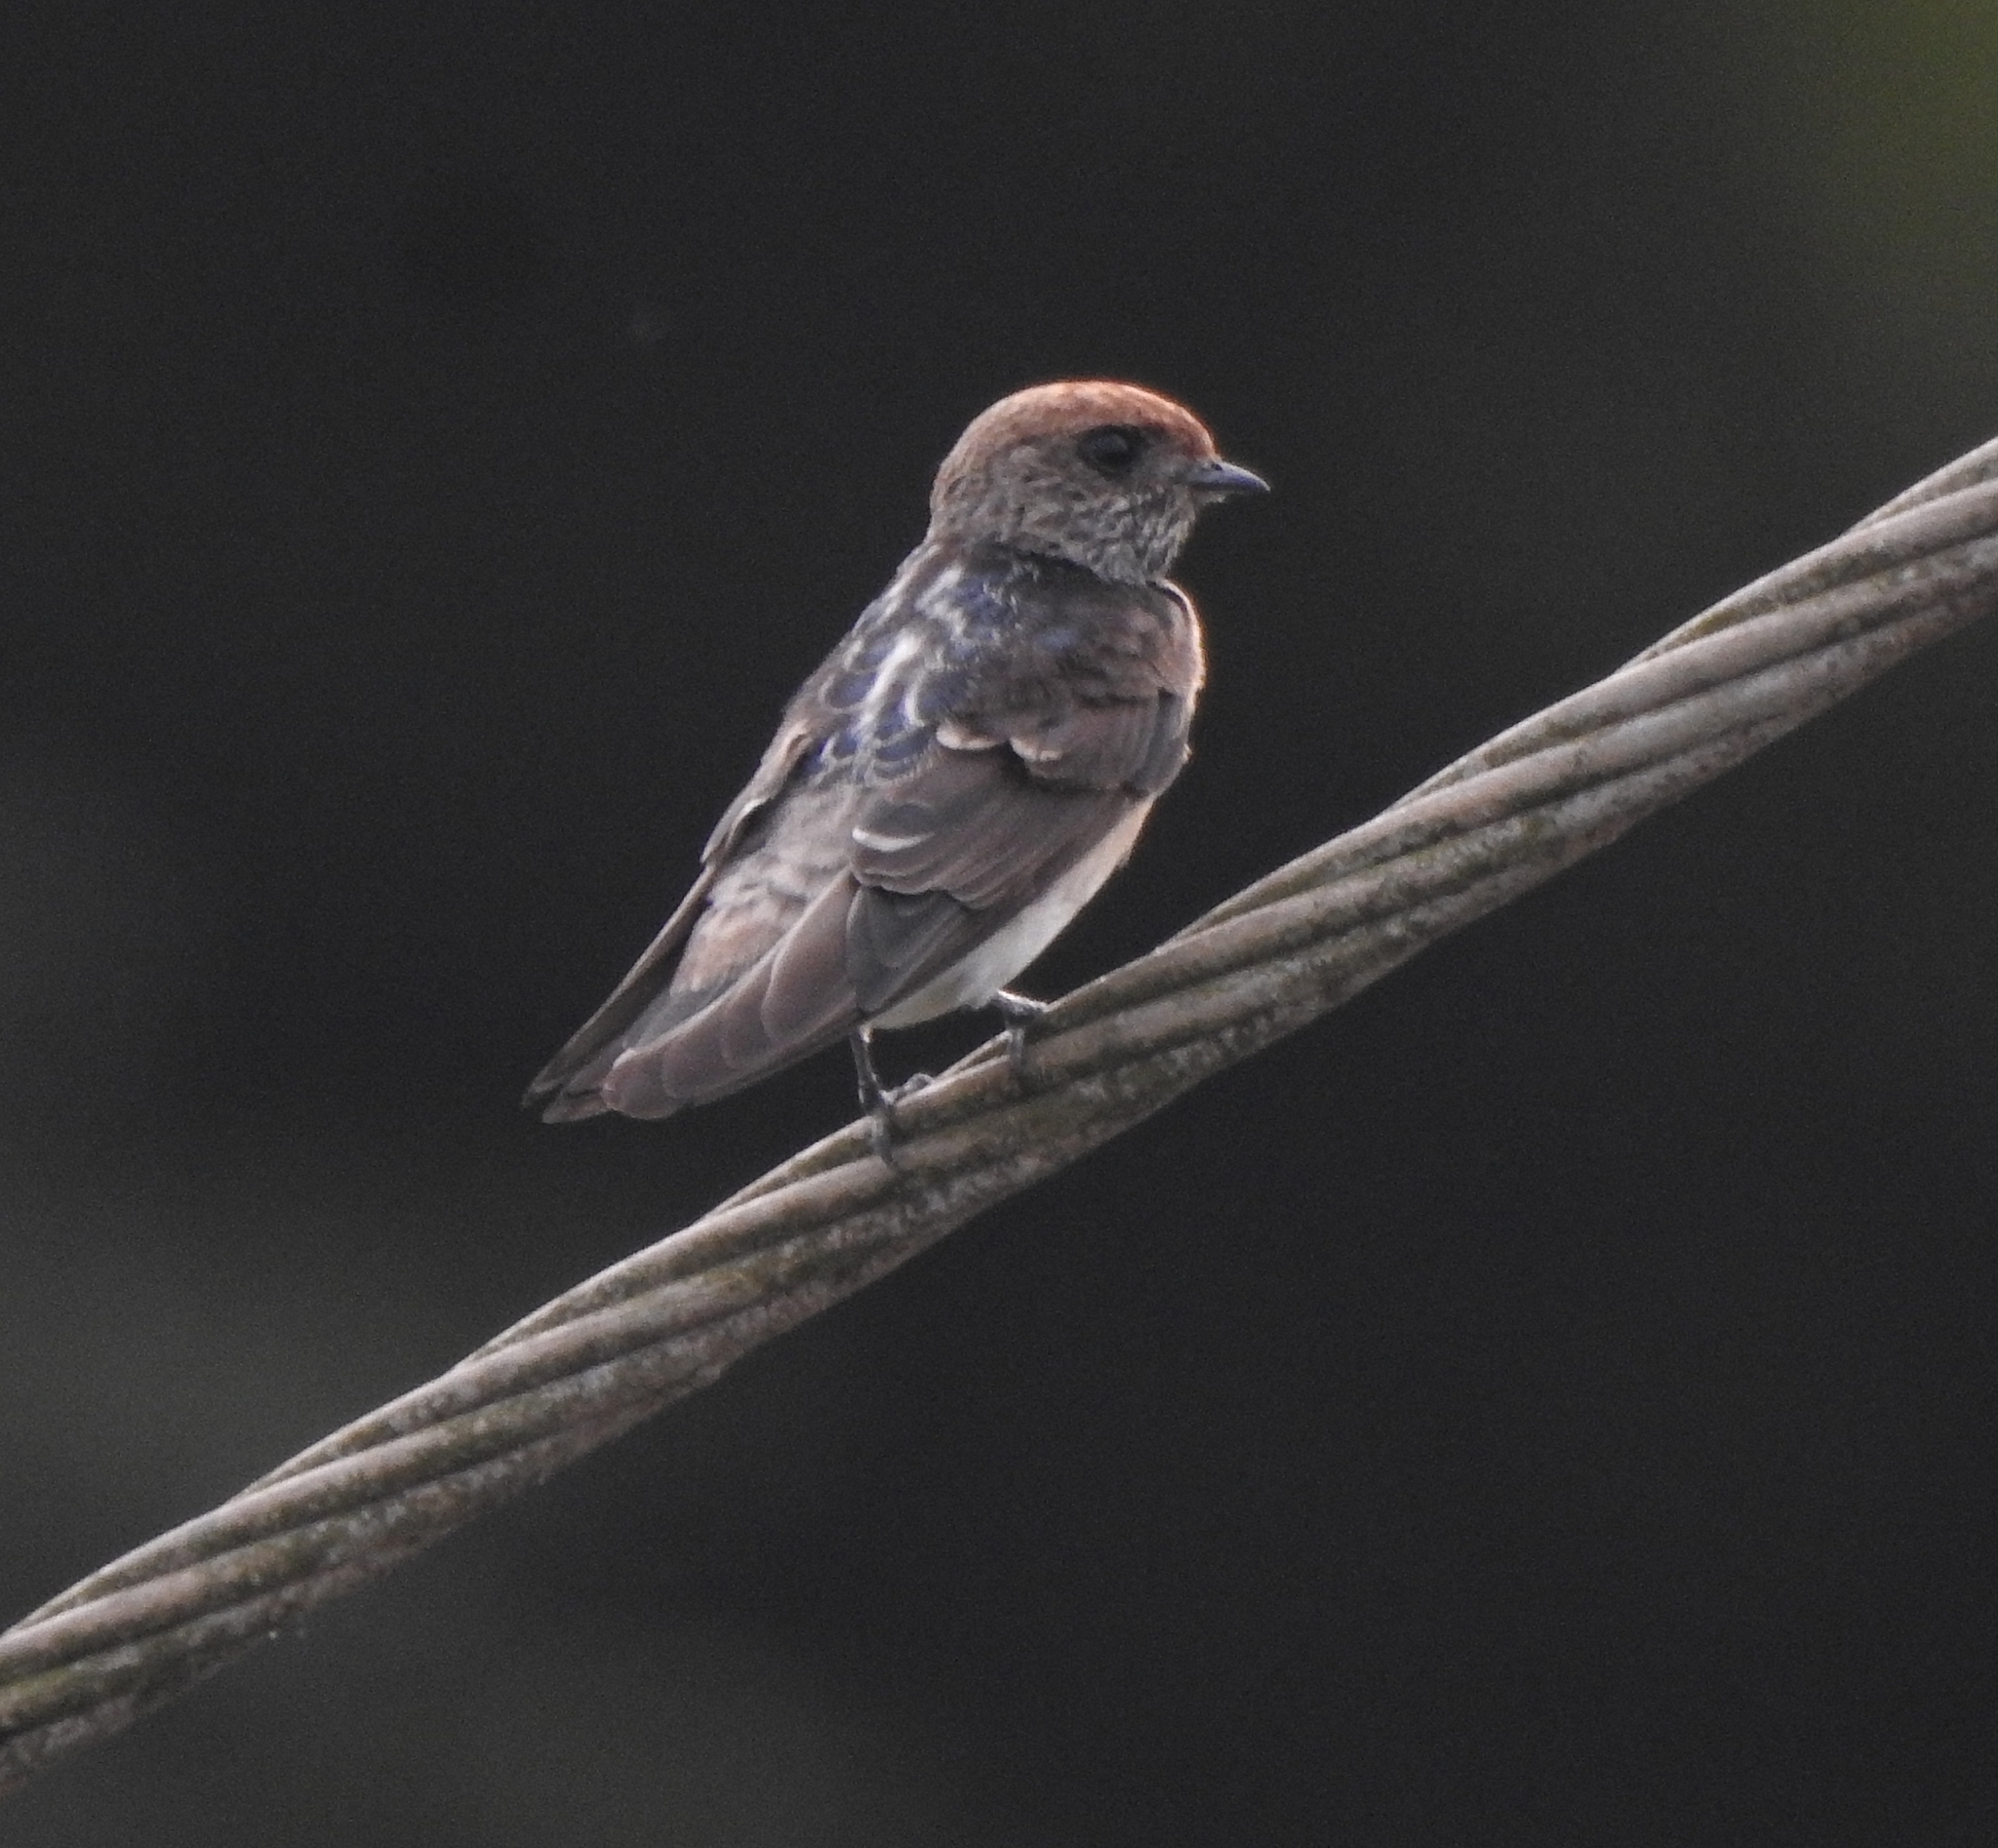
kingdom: Animalia
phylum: Chordata
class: Aves
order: Passeriformes
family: Hirundinidae
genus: Petrochelidon
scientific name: Petrochelidon fluvicola
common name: Streak-throated swallow
